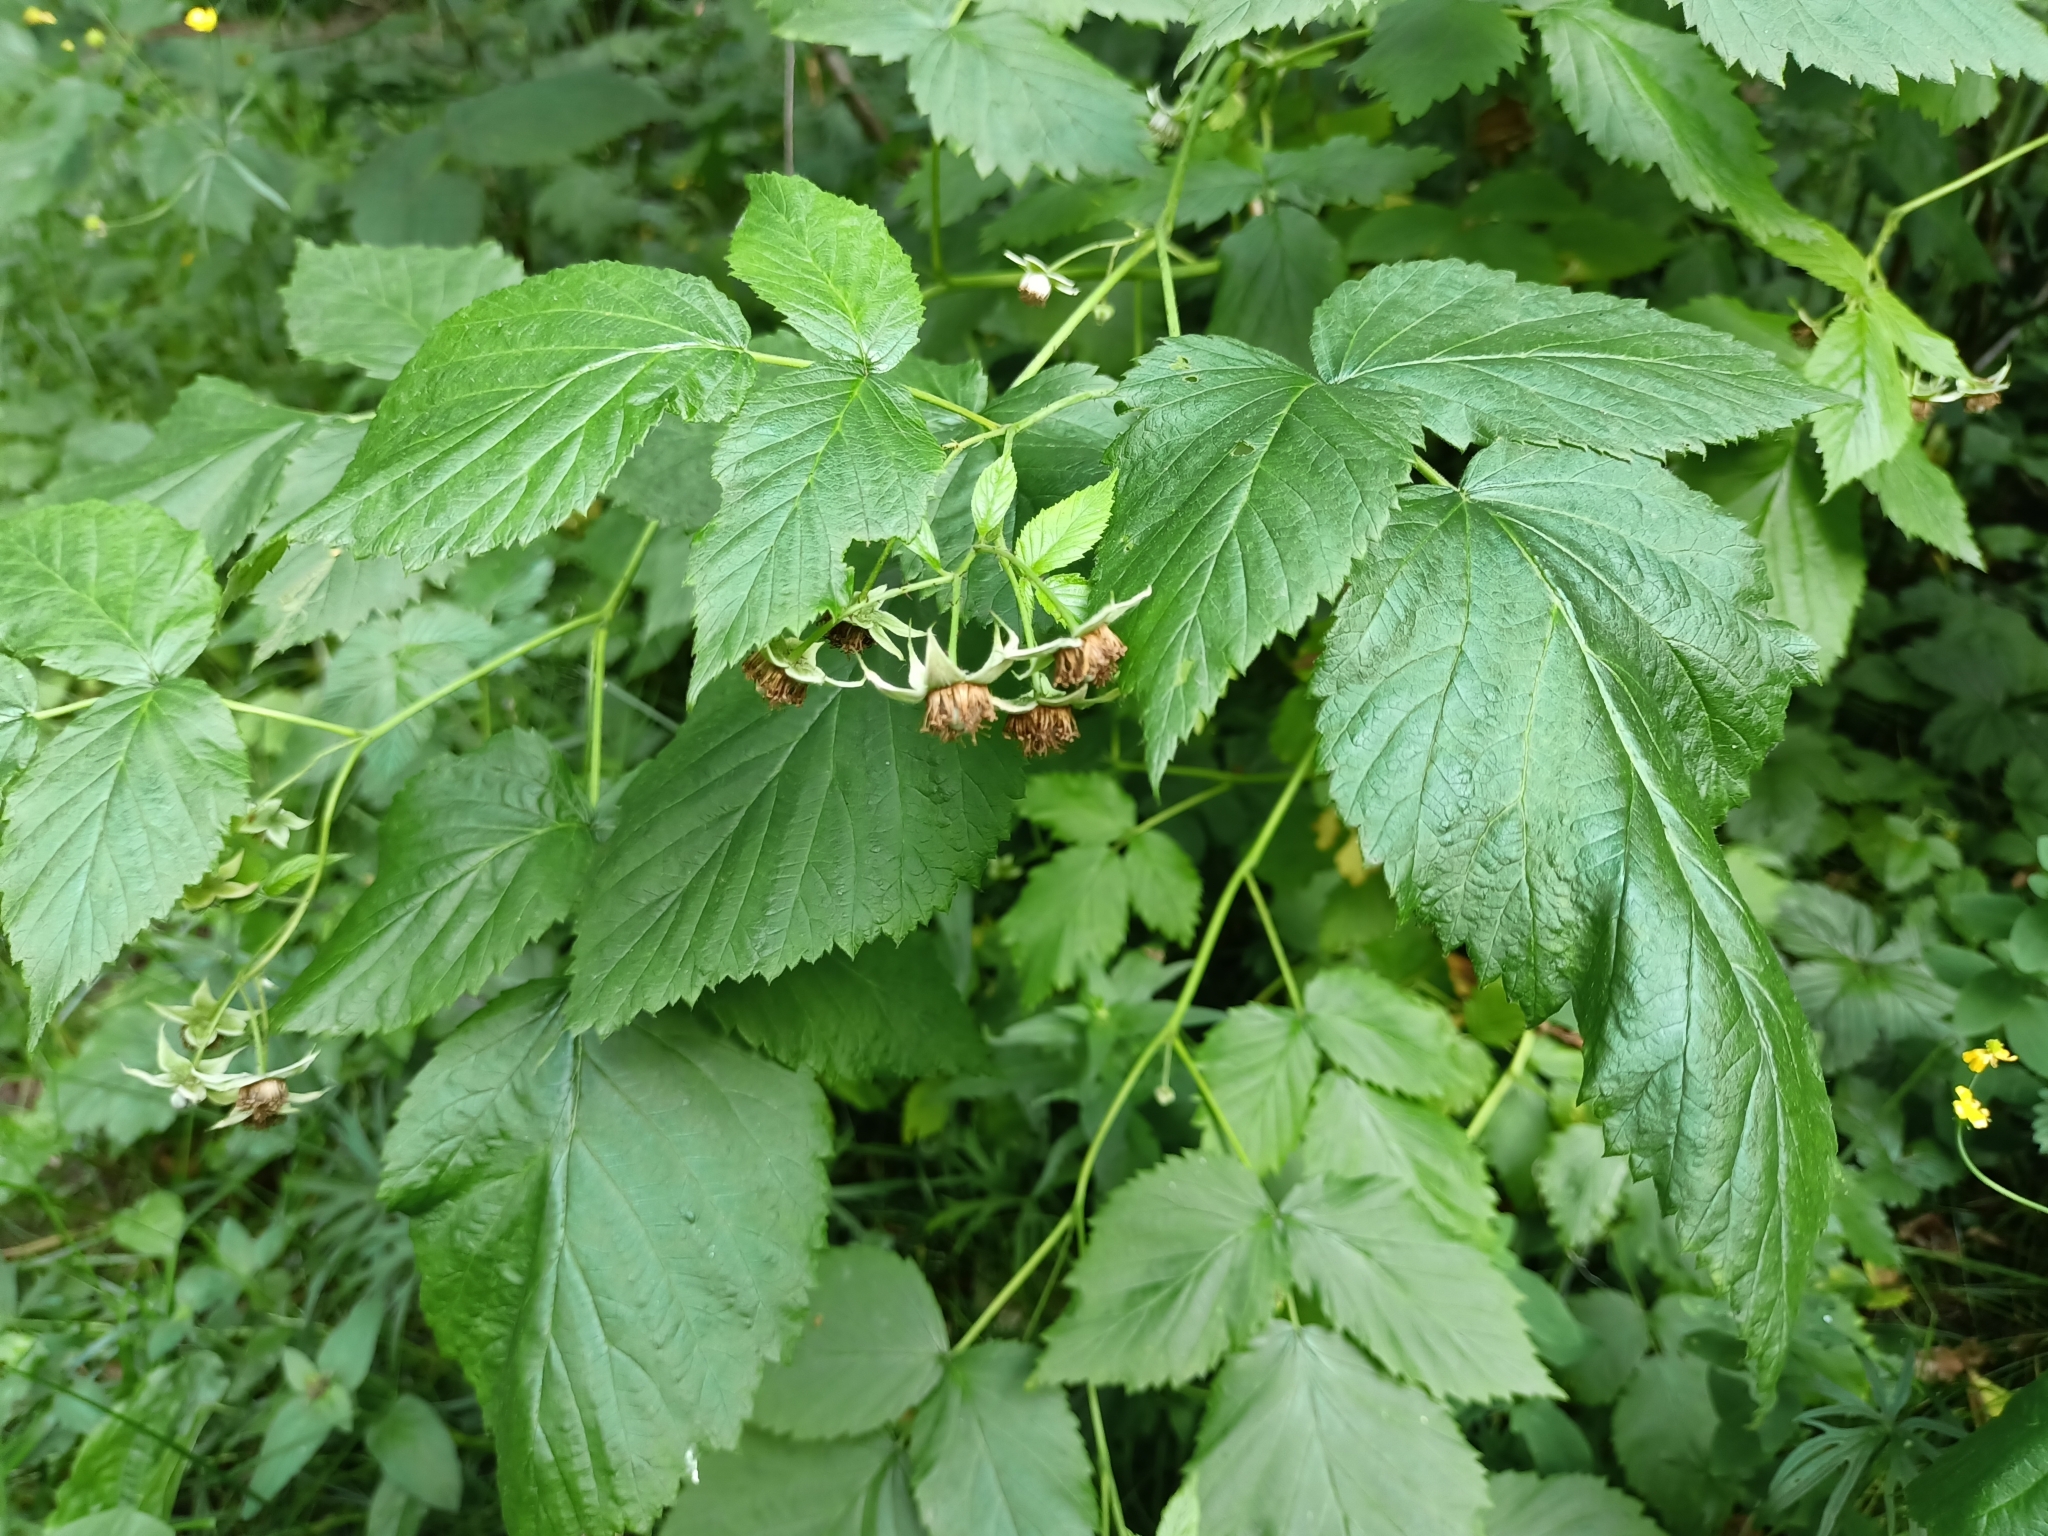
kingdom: Plantae
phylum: Tracheophyta
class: Magnoliopsida
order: Rosales
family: Rosaceae
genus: Rubus
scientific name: Rubus idaeus
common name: Raspberry
